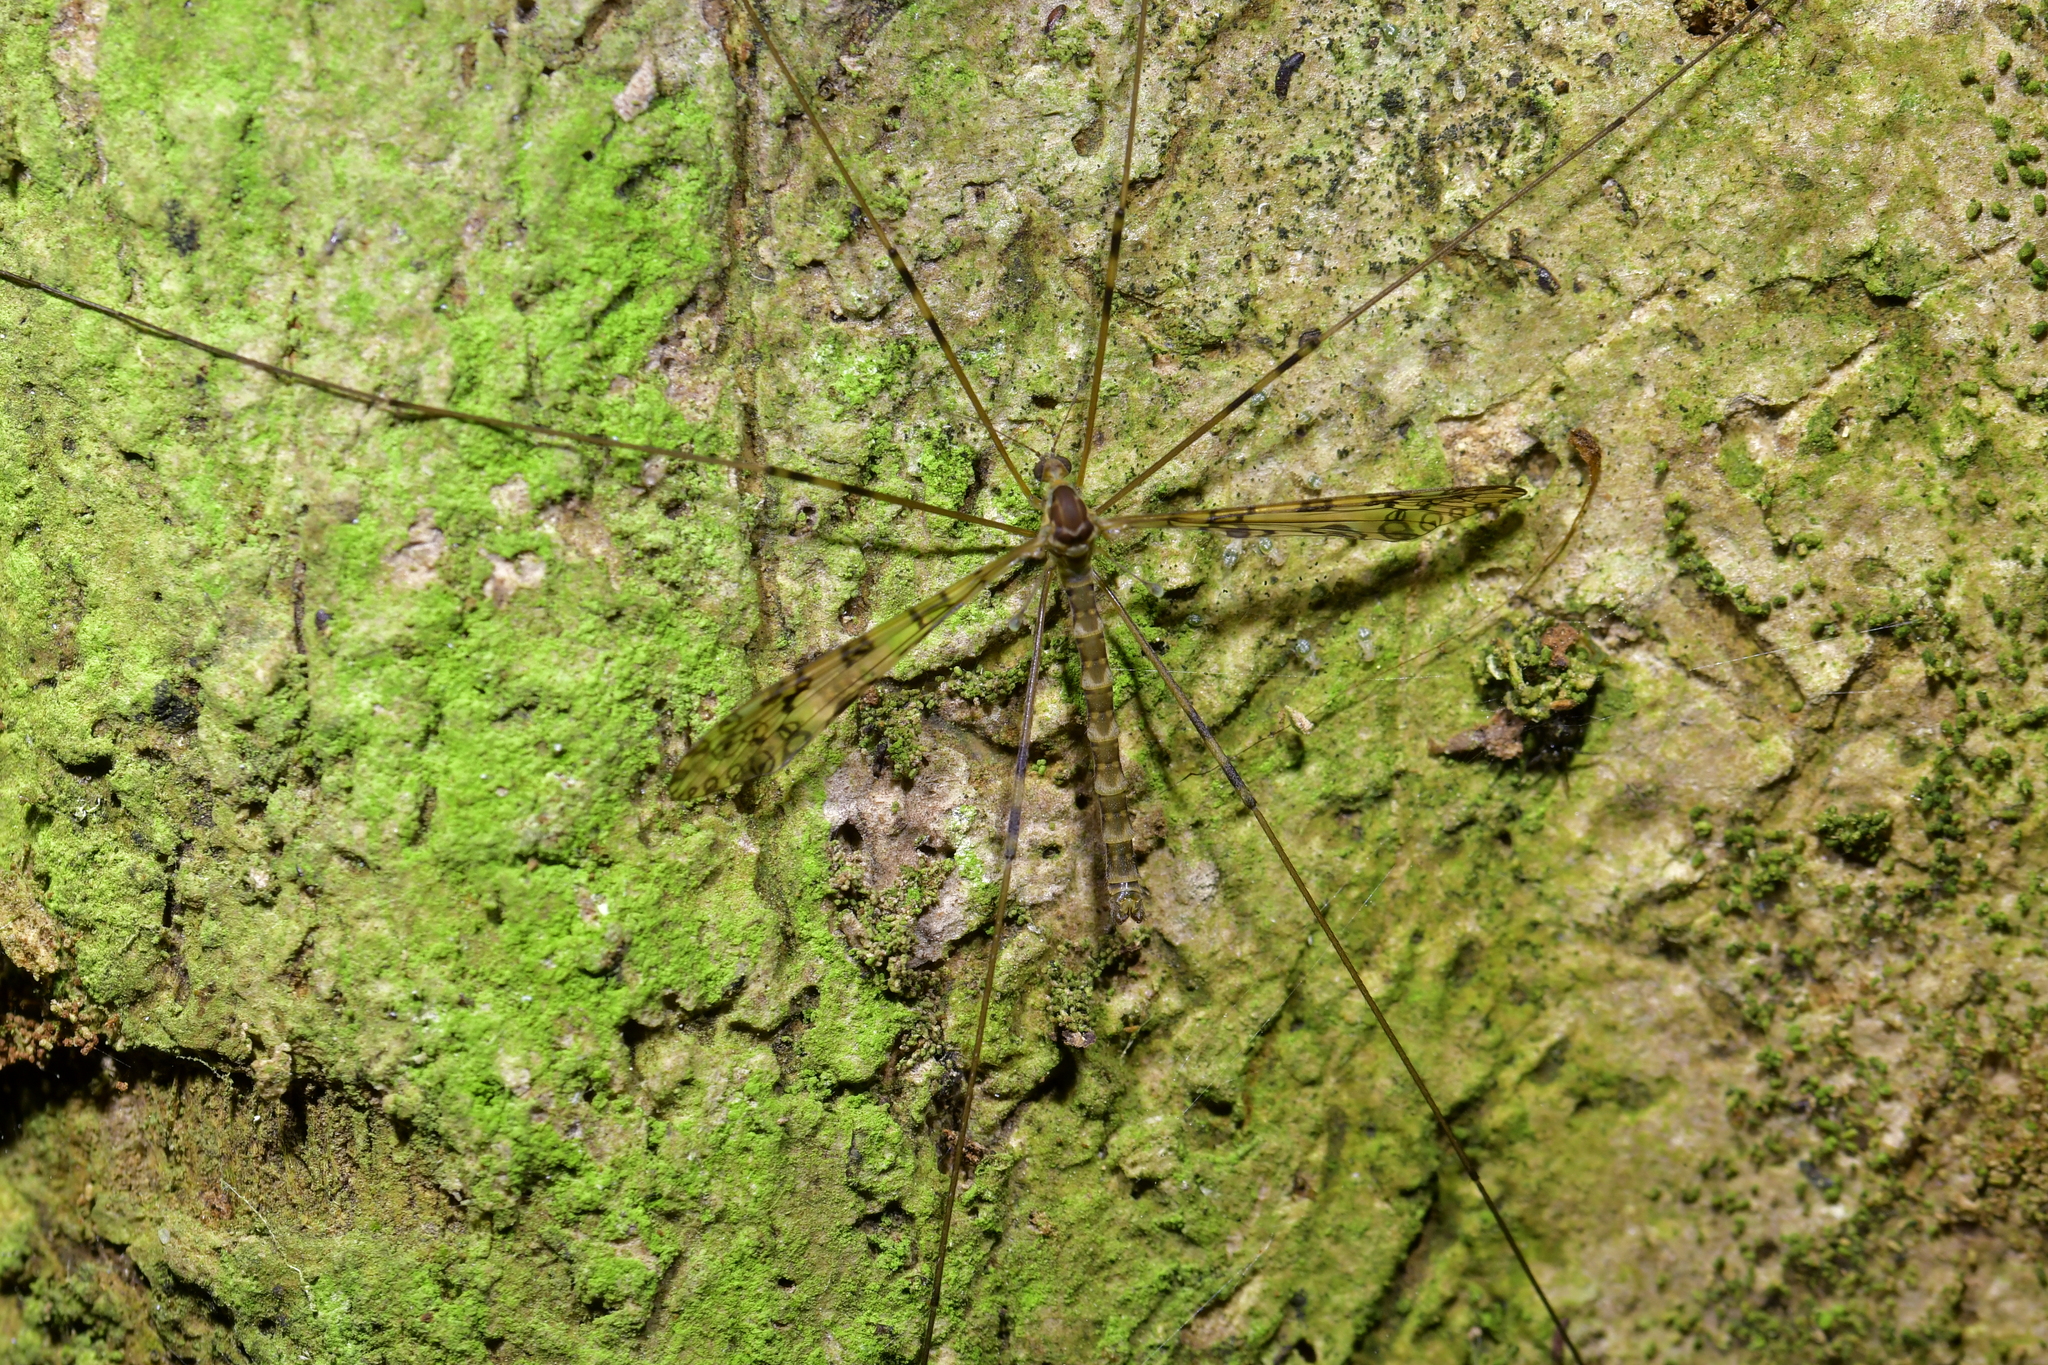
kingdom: Animalia
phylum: Arthropoda
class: Insecta
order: Diptera
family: Limoniidae
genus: Austrolimnophila
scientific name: Austrolimnophila argus
